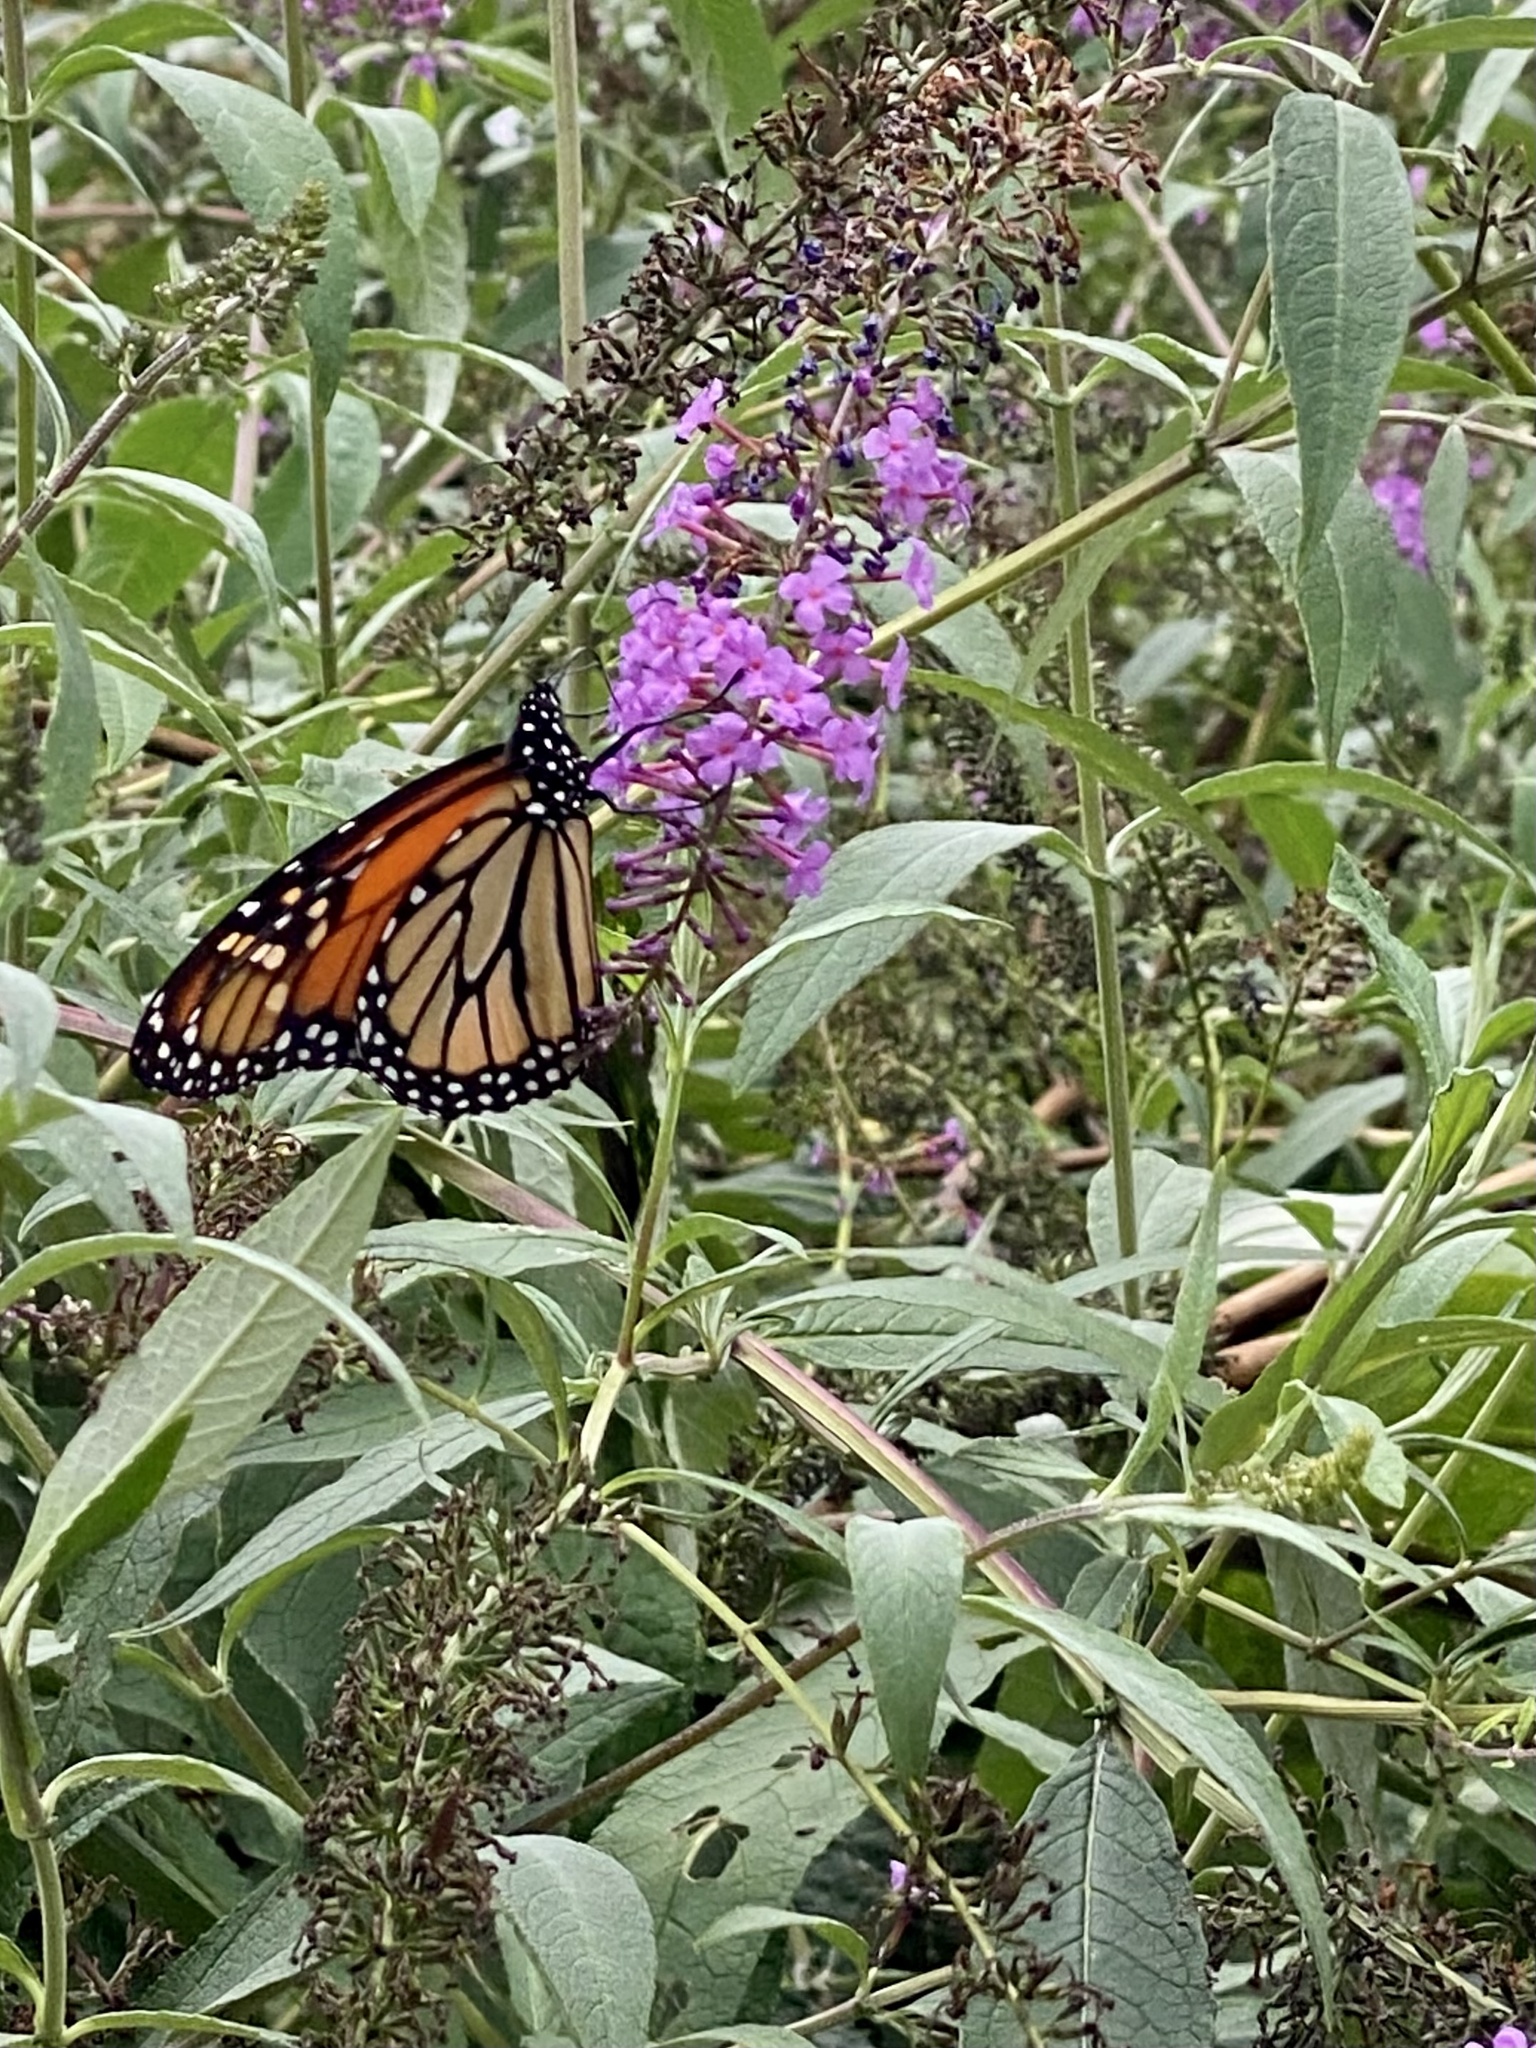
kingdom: Animalia
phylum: Arthropoda
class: Insecta
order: Lepidoptera
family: Nymphalidae
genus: Danaus
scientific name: Danaus plexippus
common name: Monarch
